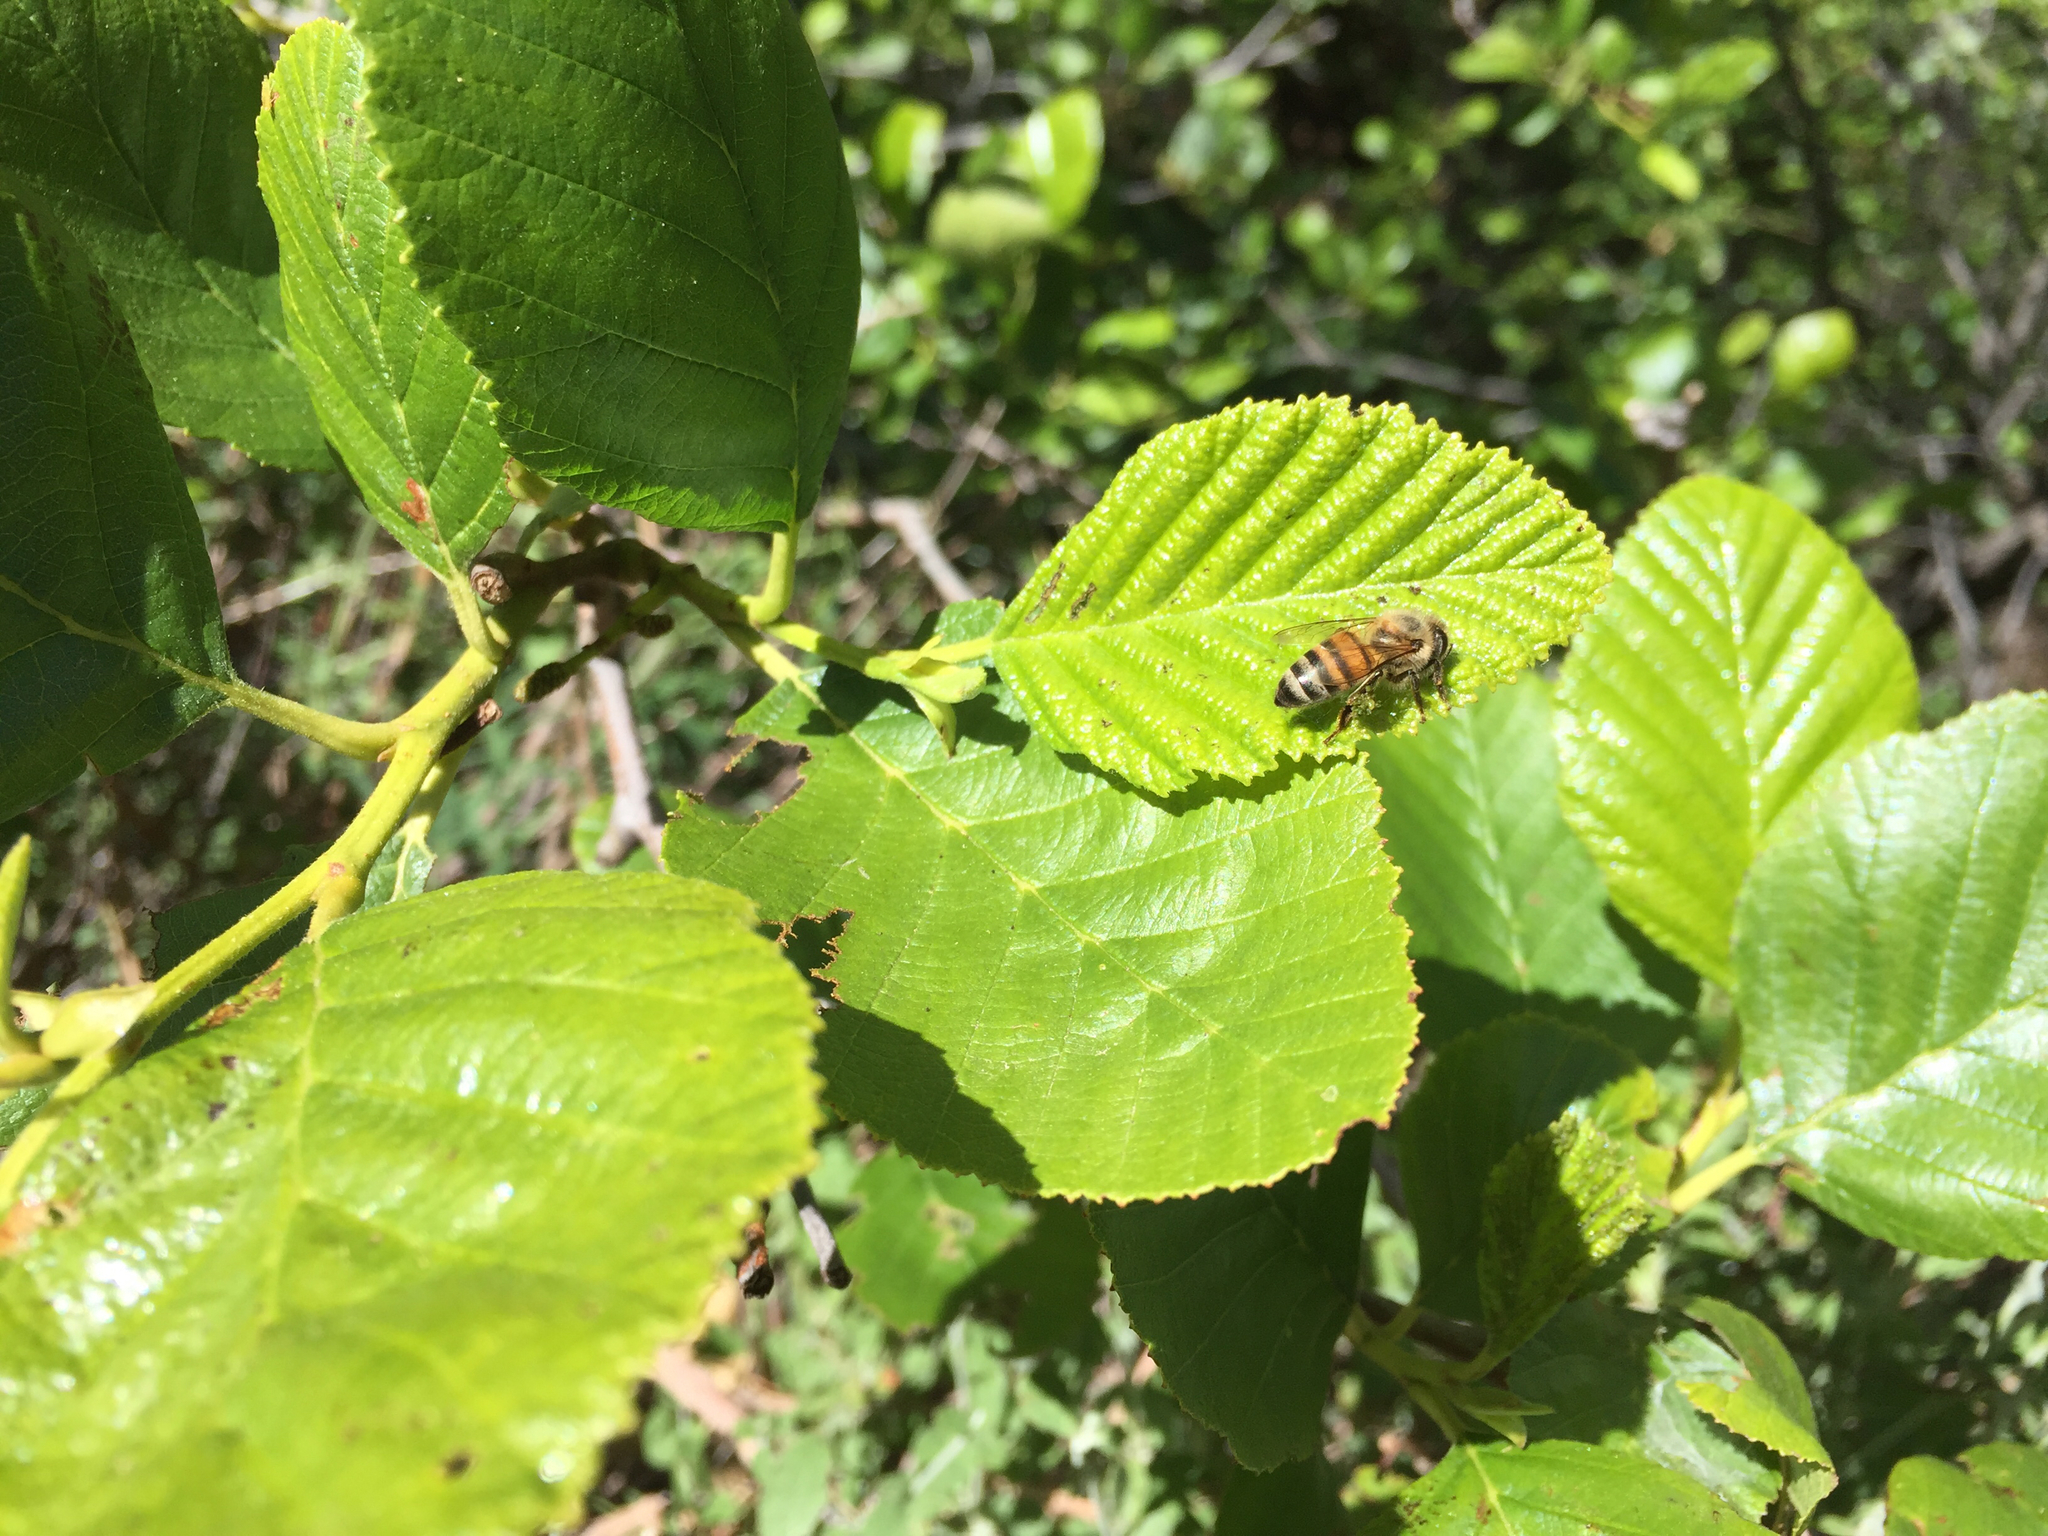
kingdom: Animalia
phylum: Arthropoda
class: Insecta
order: Hymenoptera
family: Apidae
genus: Apis
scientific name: Apis mellifera
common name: Honey bee
